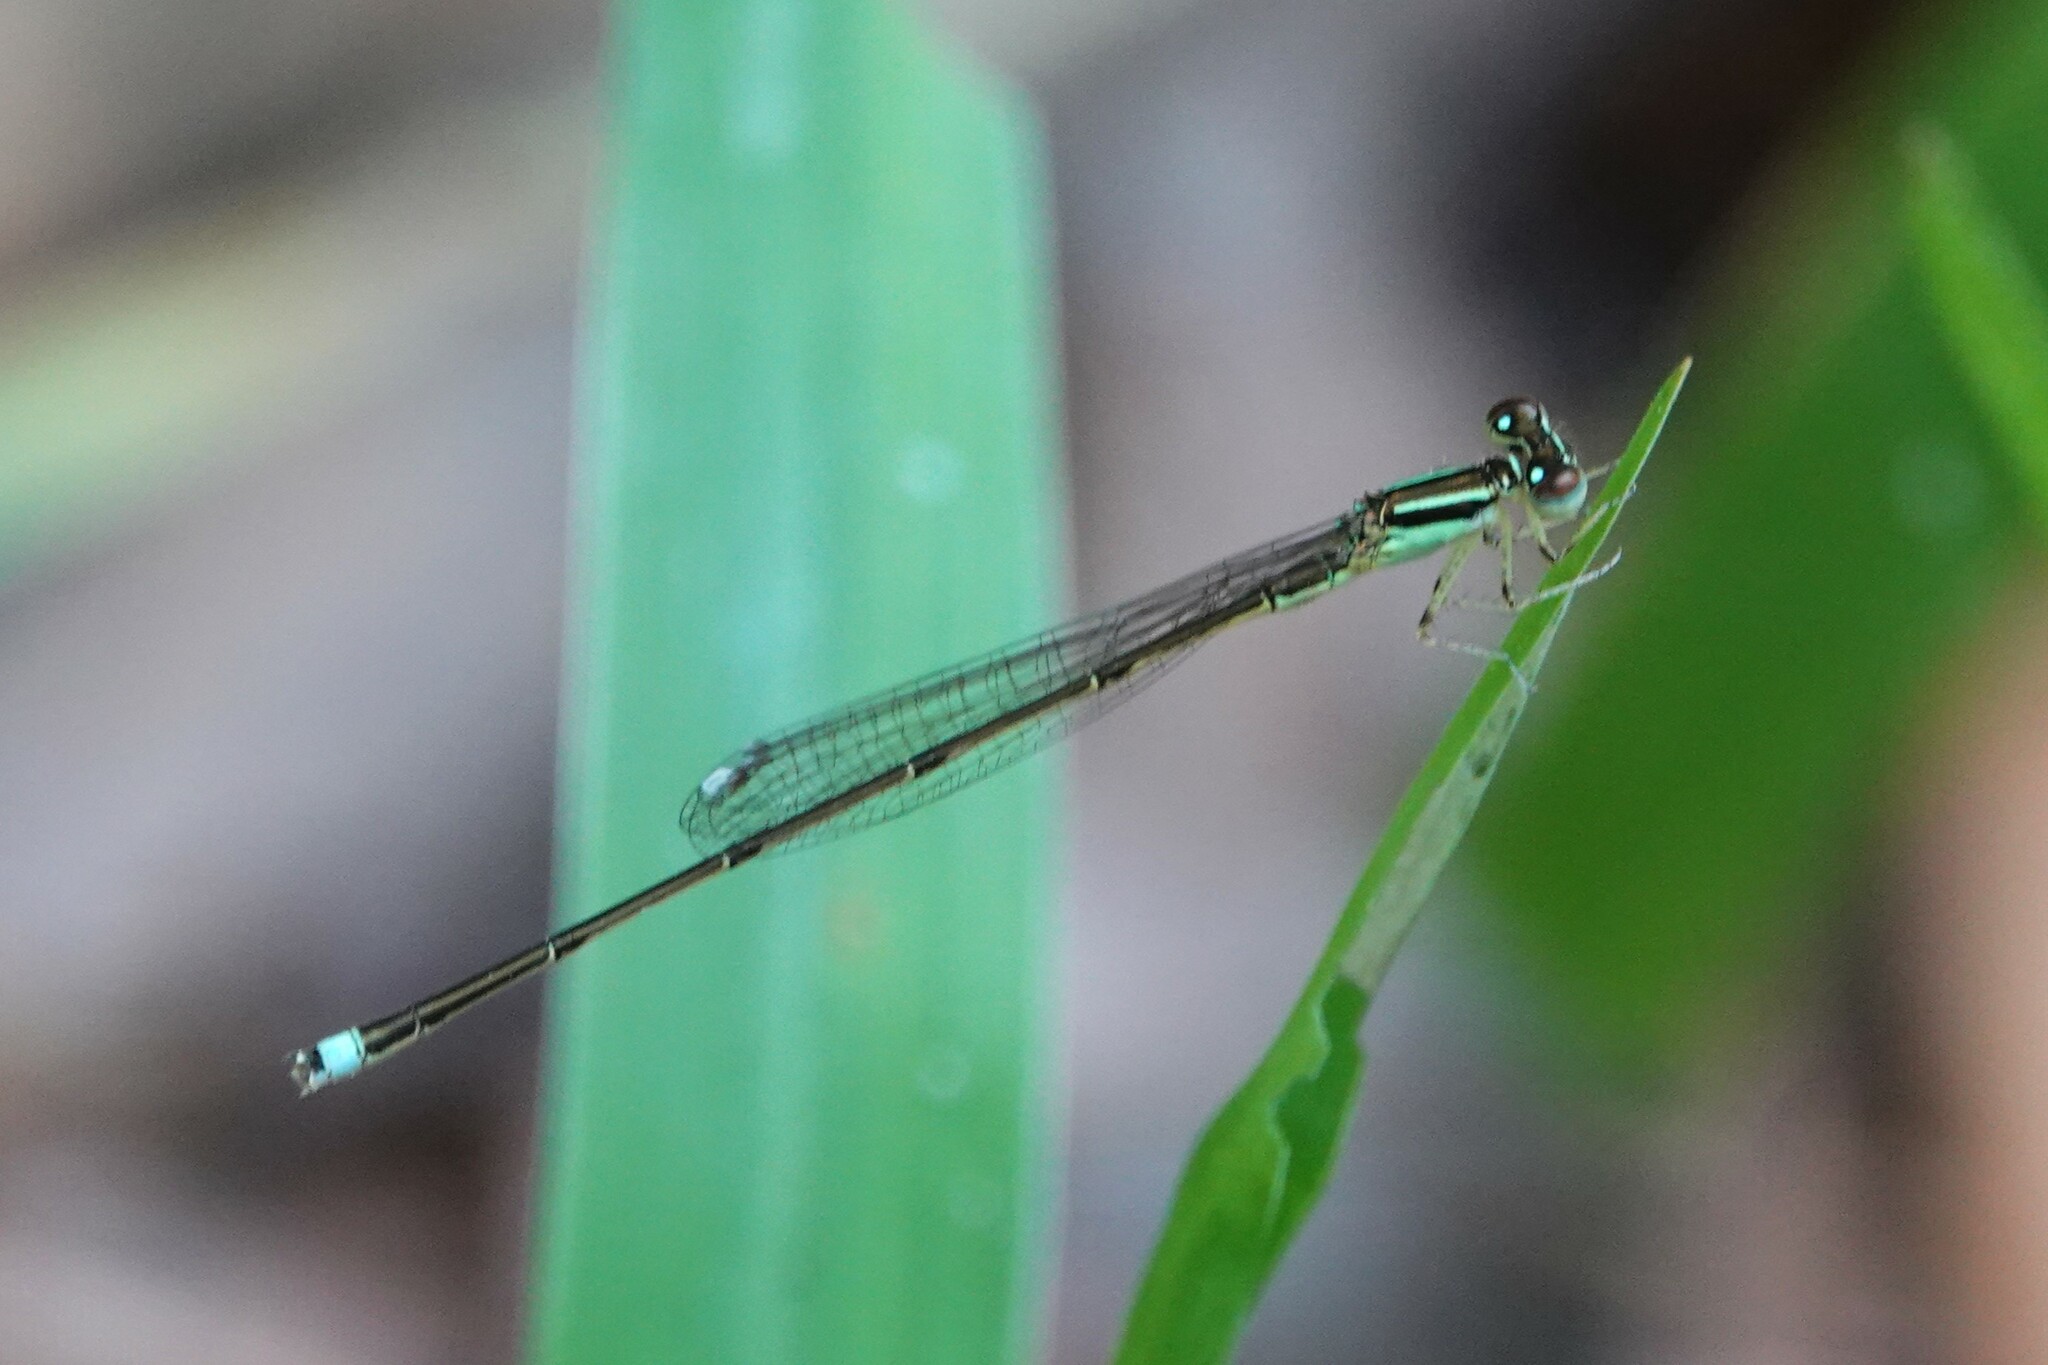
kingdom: Animalia
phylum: Arthropoda
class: Insecta
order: Odonata
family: Coenagrionidae
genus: Ischnura
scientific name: Ischnura prognata
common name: Furtive forktail
